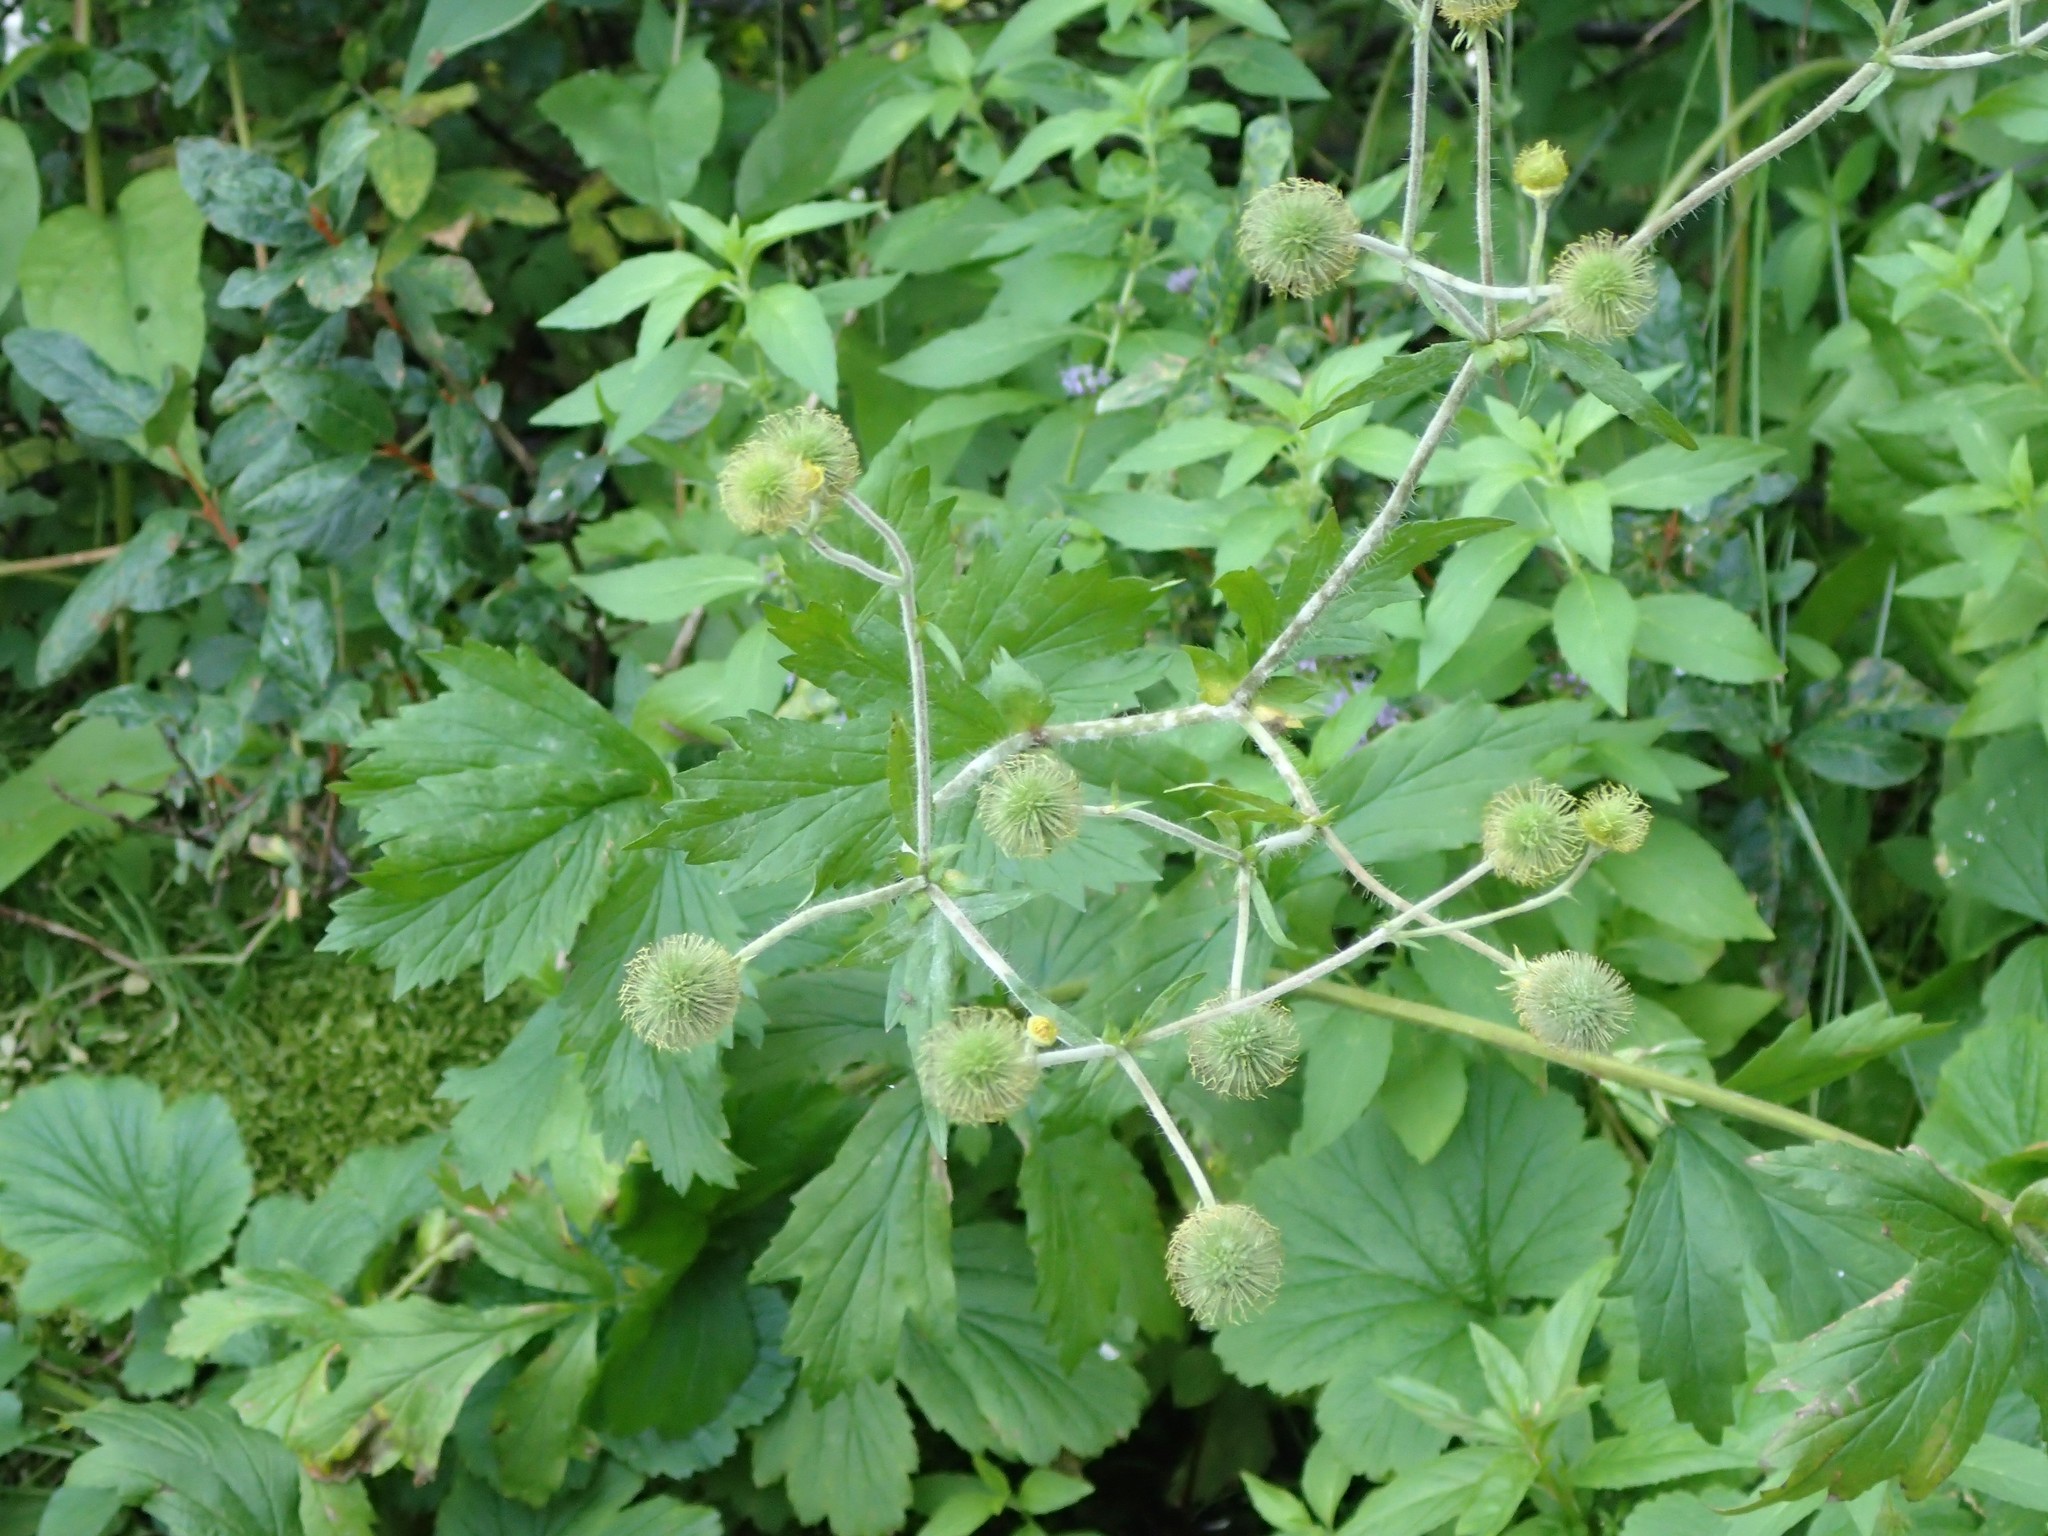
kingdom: Plantae
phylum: Tracheophyta
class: Magnoliopsida
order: Rosales
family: Rosaceae
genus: Geum
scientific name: Geum macrophyllum
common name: Large-leaved avens
